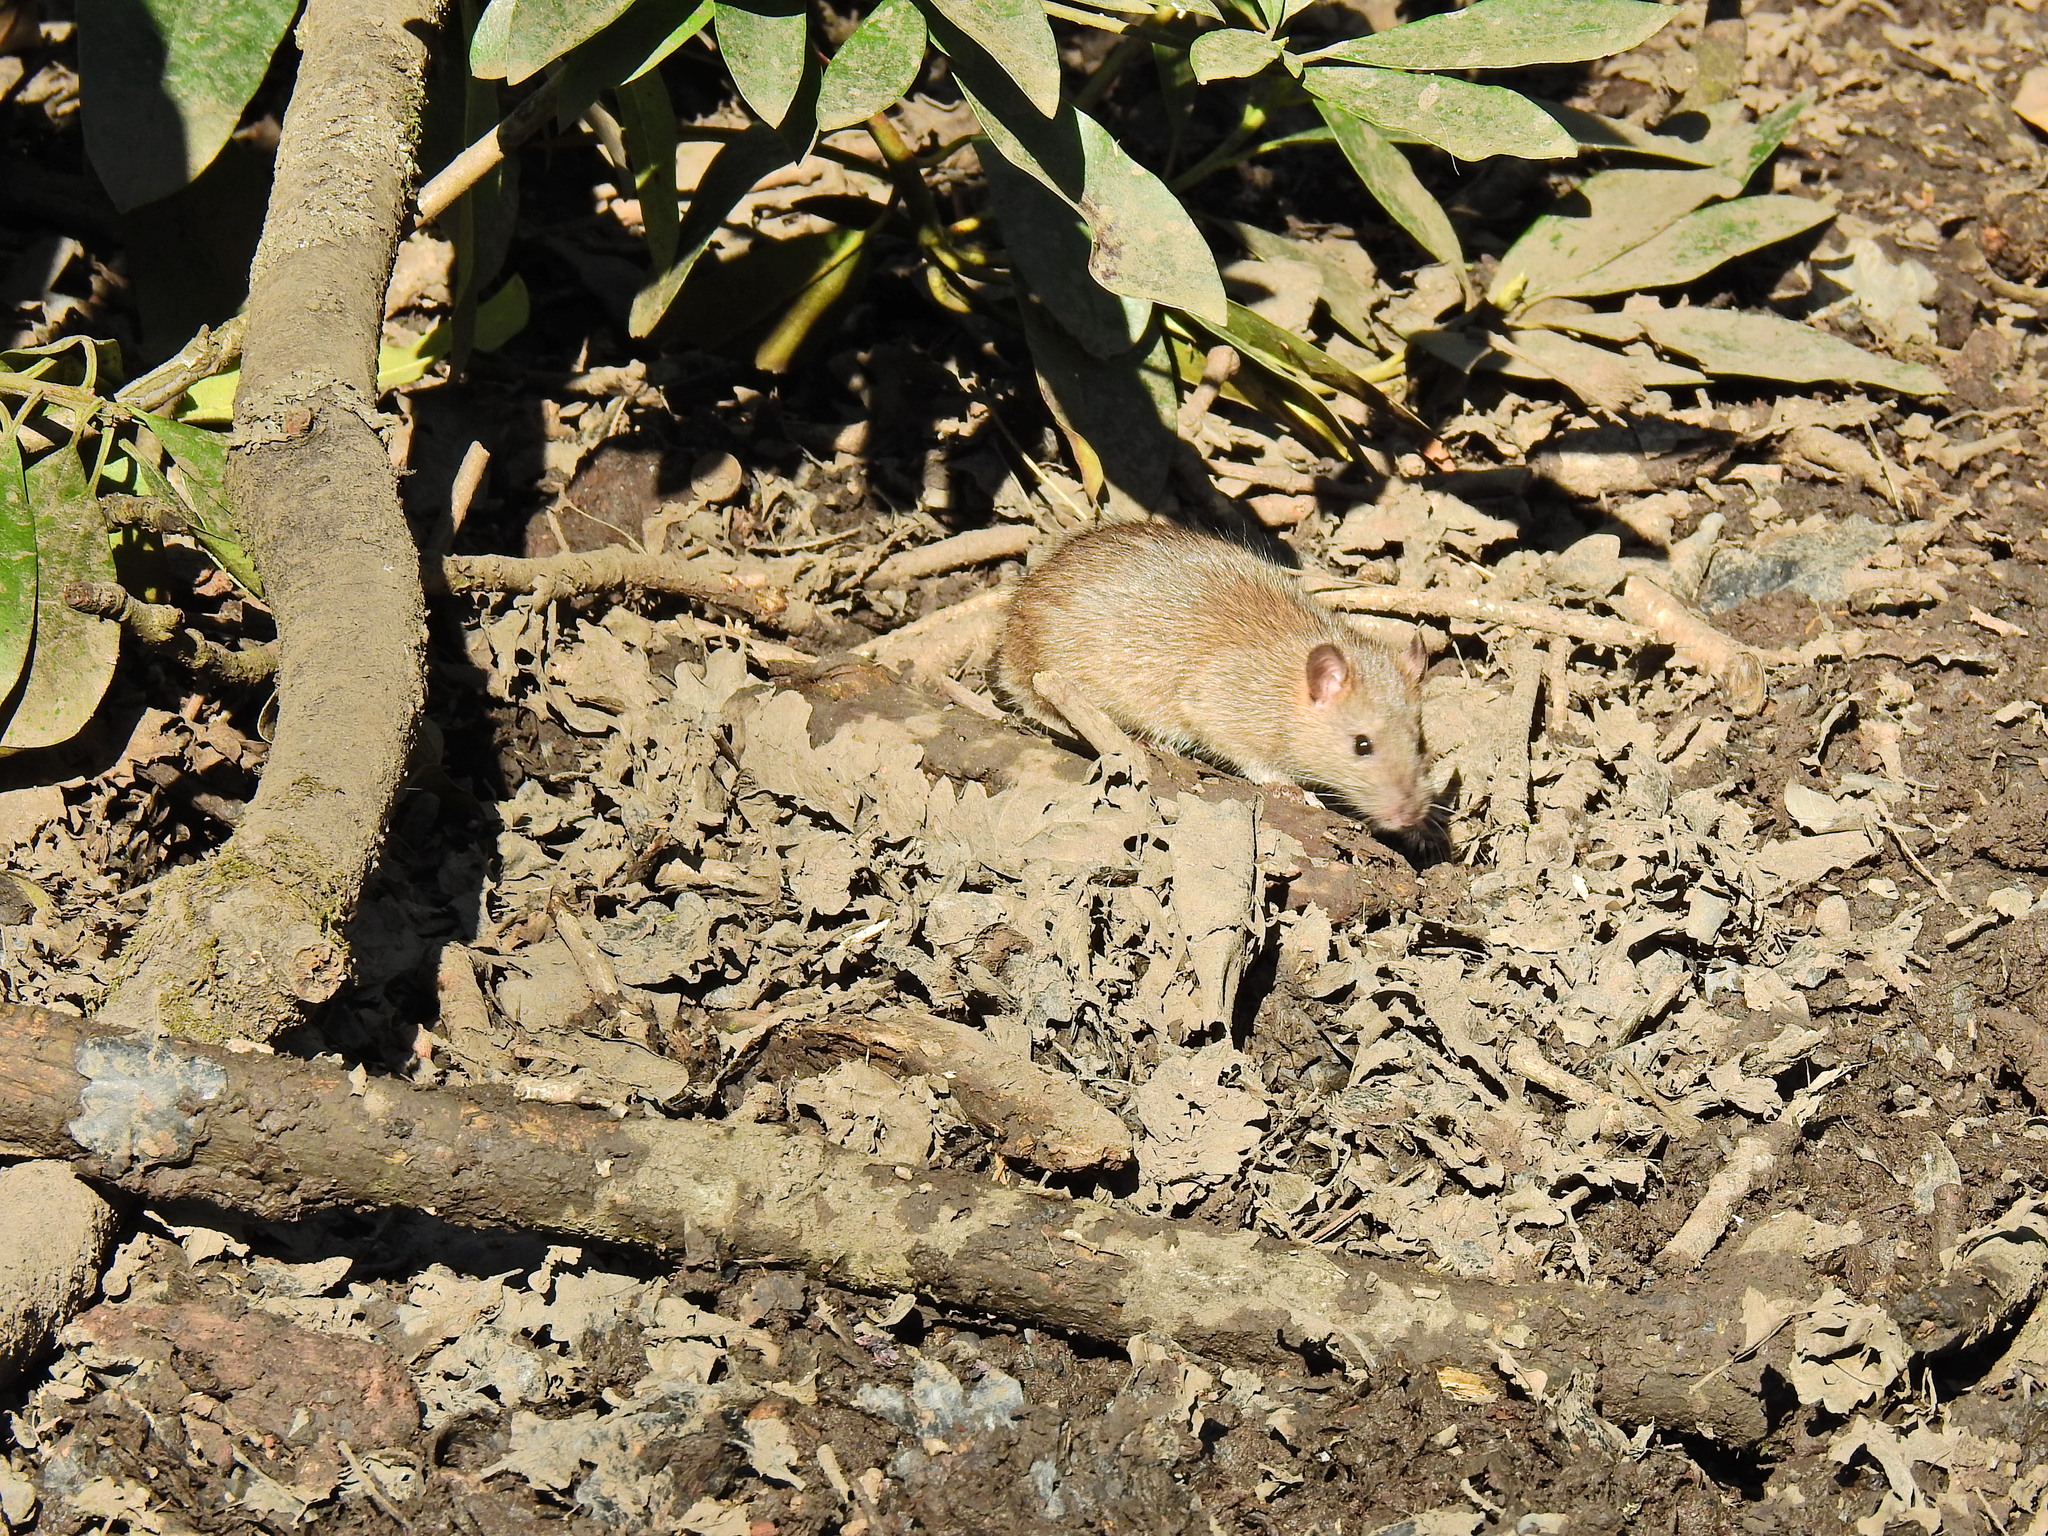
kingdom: Animalia
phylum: Chordata
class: Mammalia
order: Rodentia
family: Muridae
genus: Rattus
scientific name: Rattus norvegicus
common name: Brown rat
